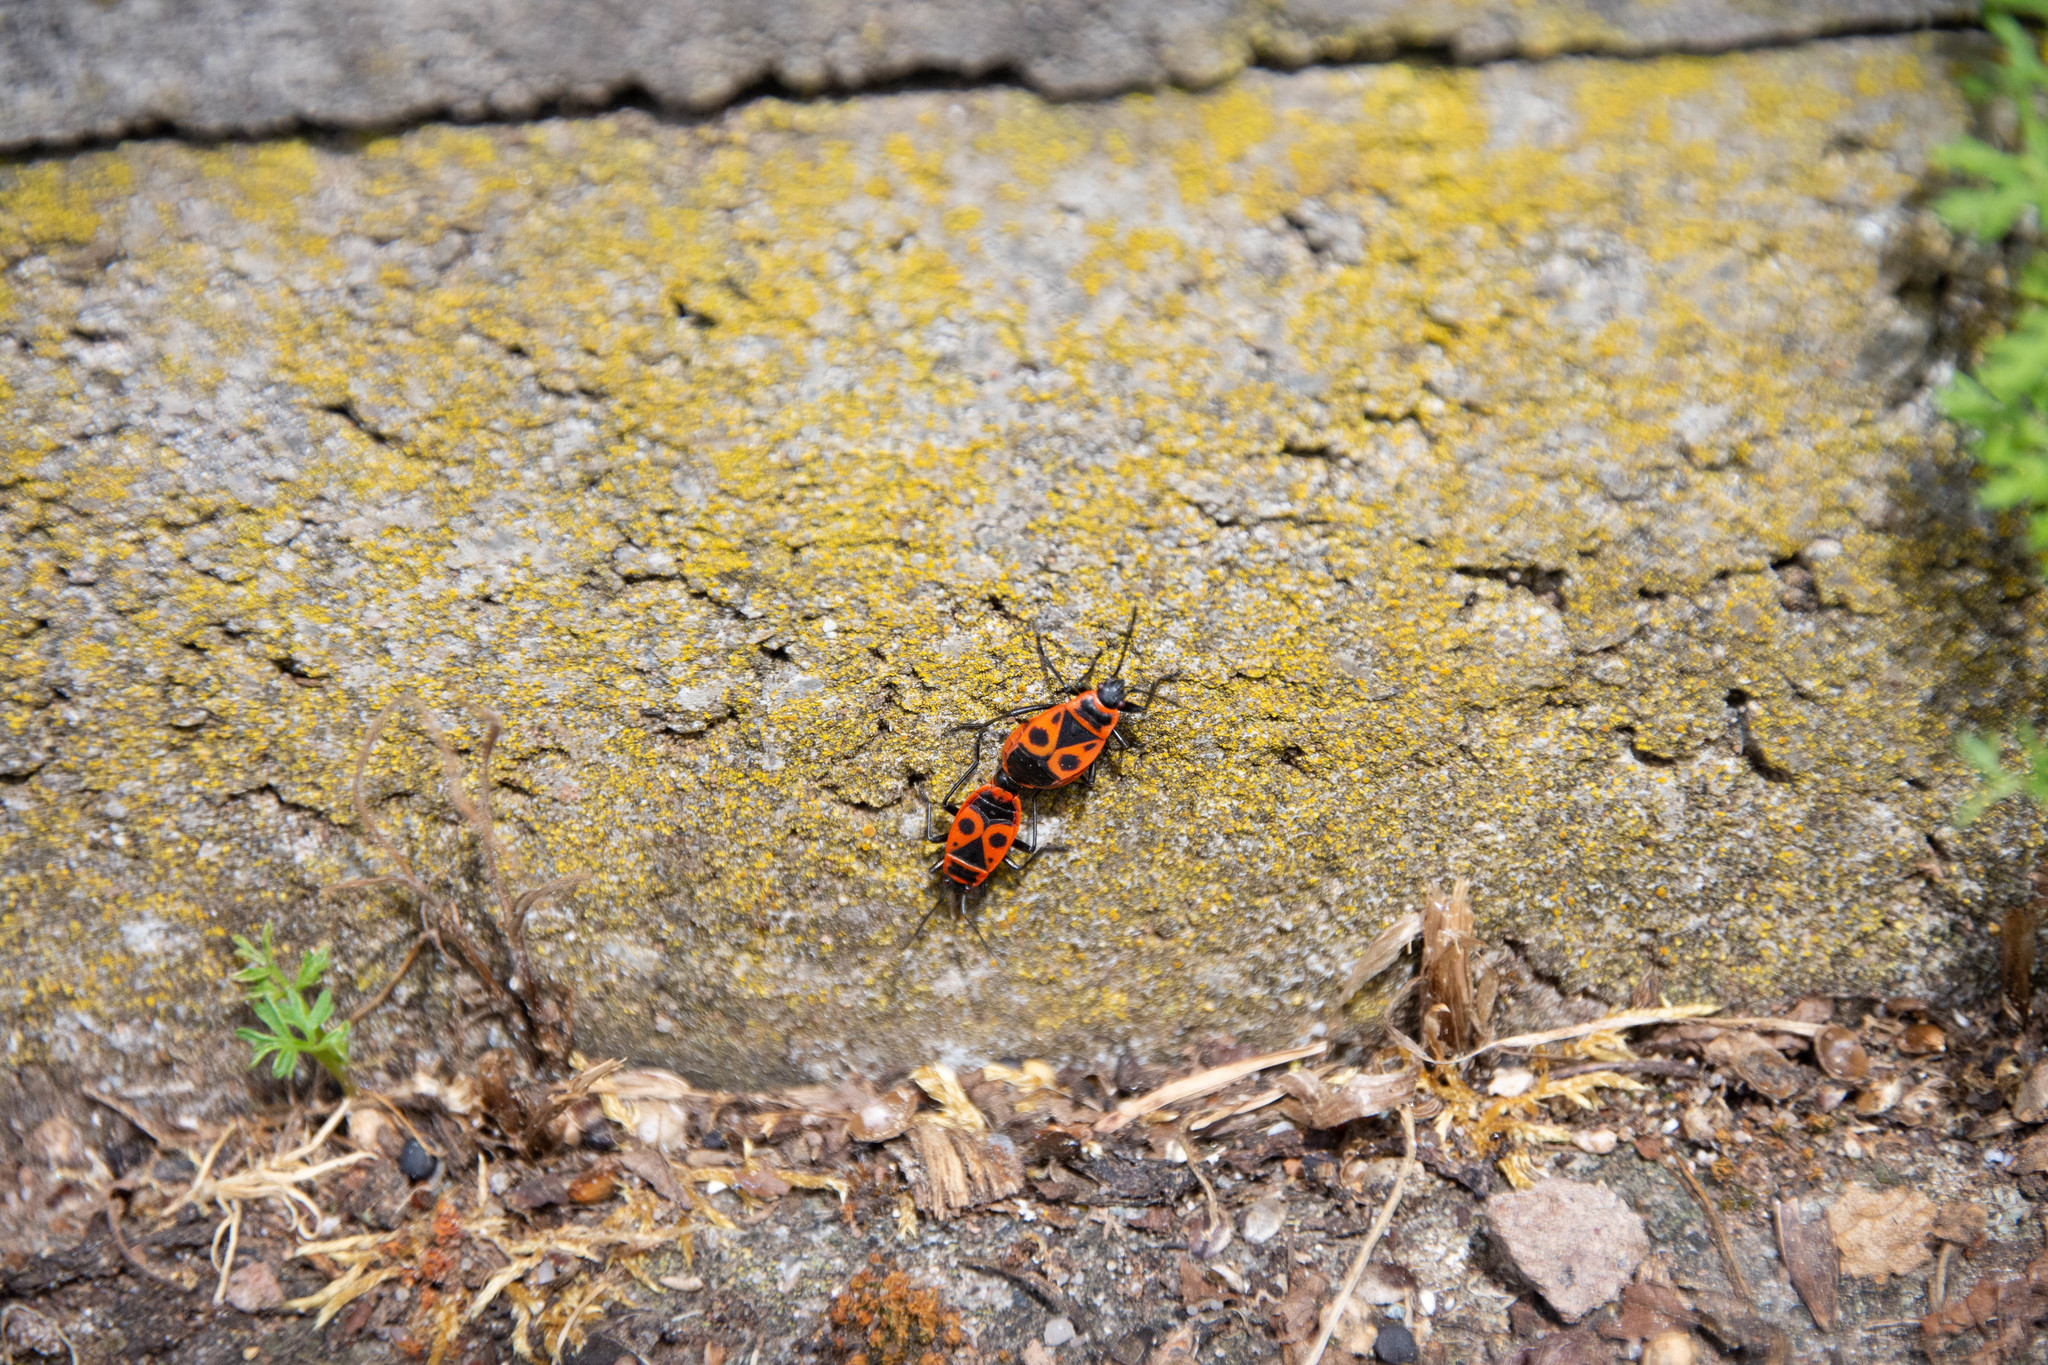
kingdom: Animalia
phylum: Arthropoda
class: Insecta
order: Hemiptera
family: Pyrrhocoridae
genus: Pyrrhocoris
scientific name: Pyrrhocoris apterus
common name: Firebug
